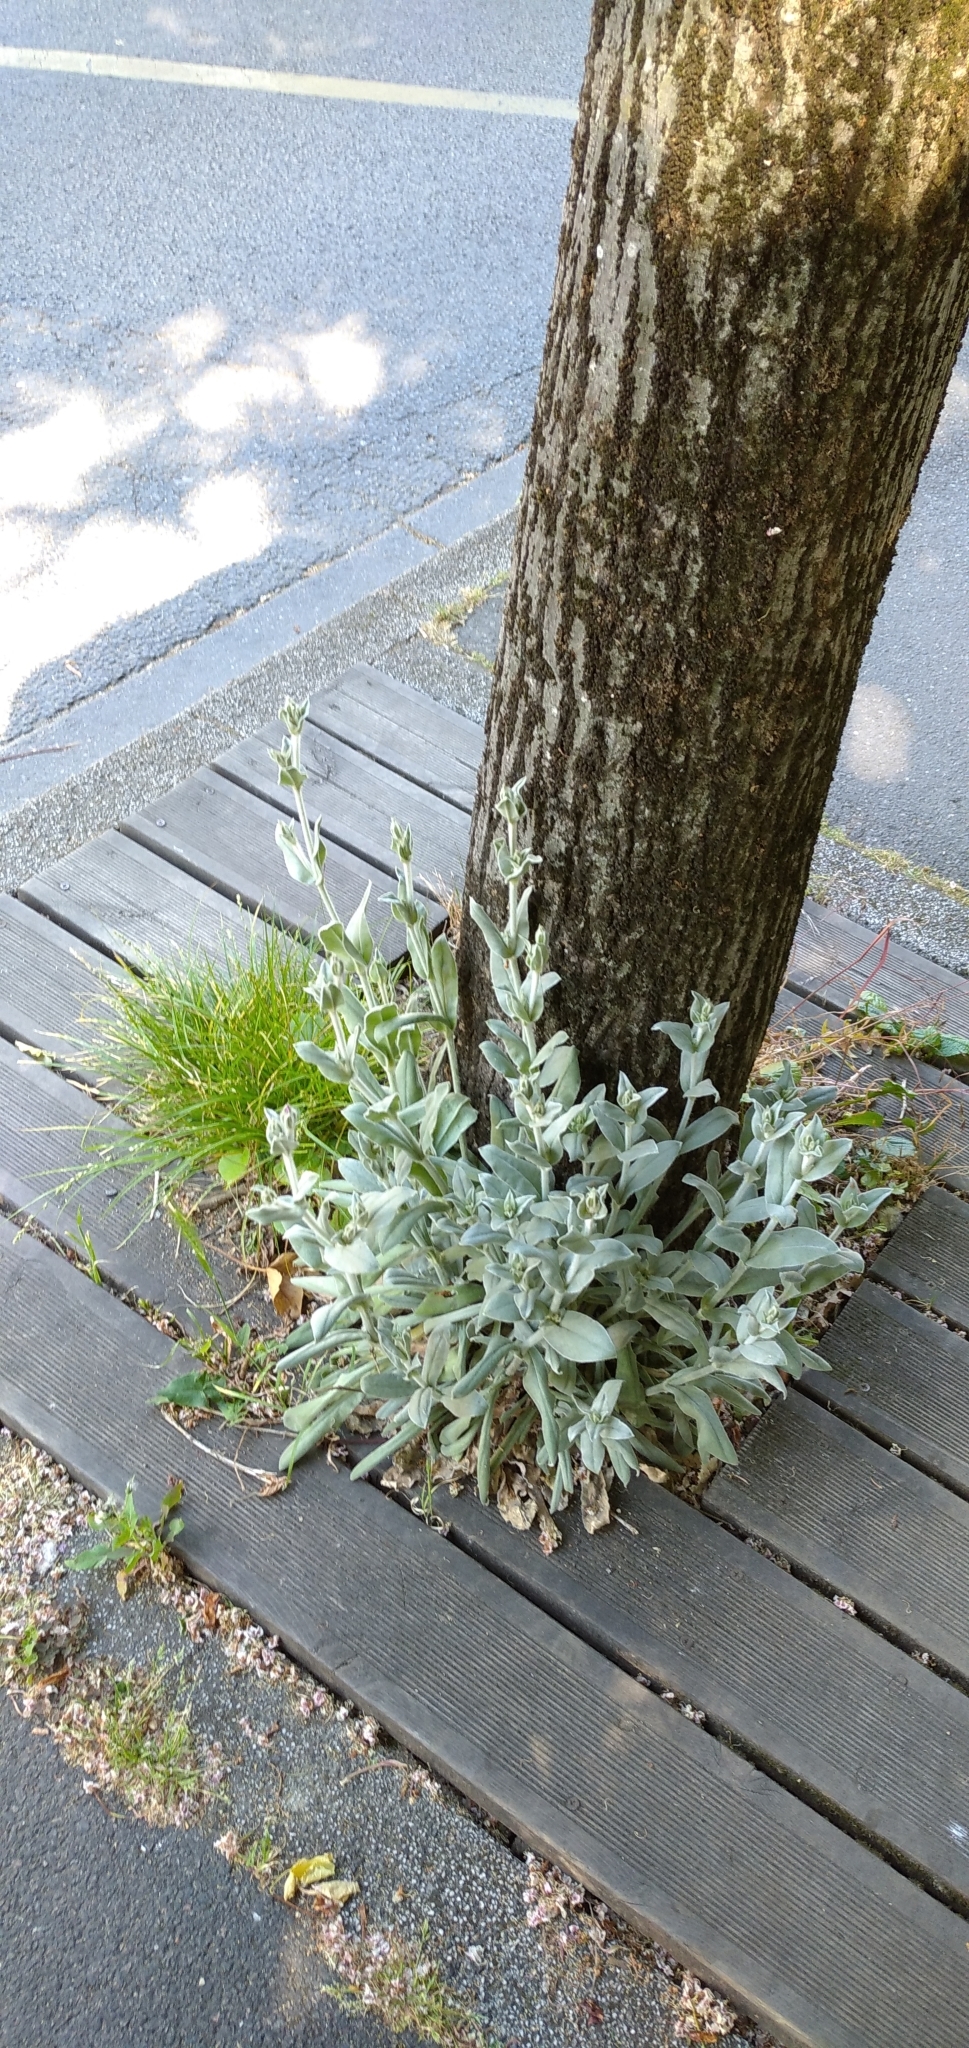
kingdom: Plantae
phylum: Tracheophyta
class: Magnoliopsida
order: Caryophyllales
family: Caryophyllaceae
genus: Silene
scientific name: Silene coronaria
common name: Rose campion
